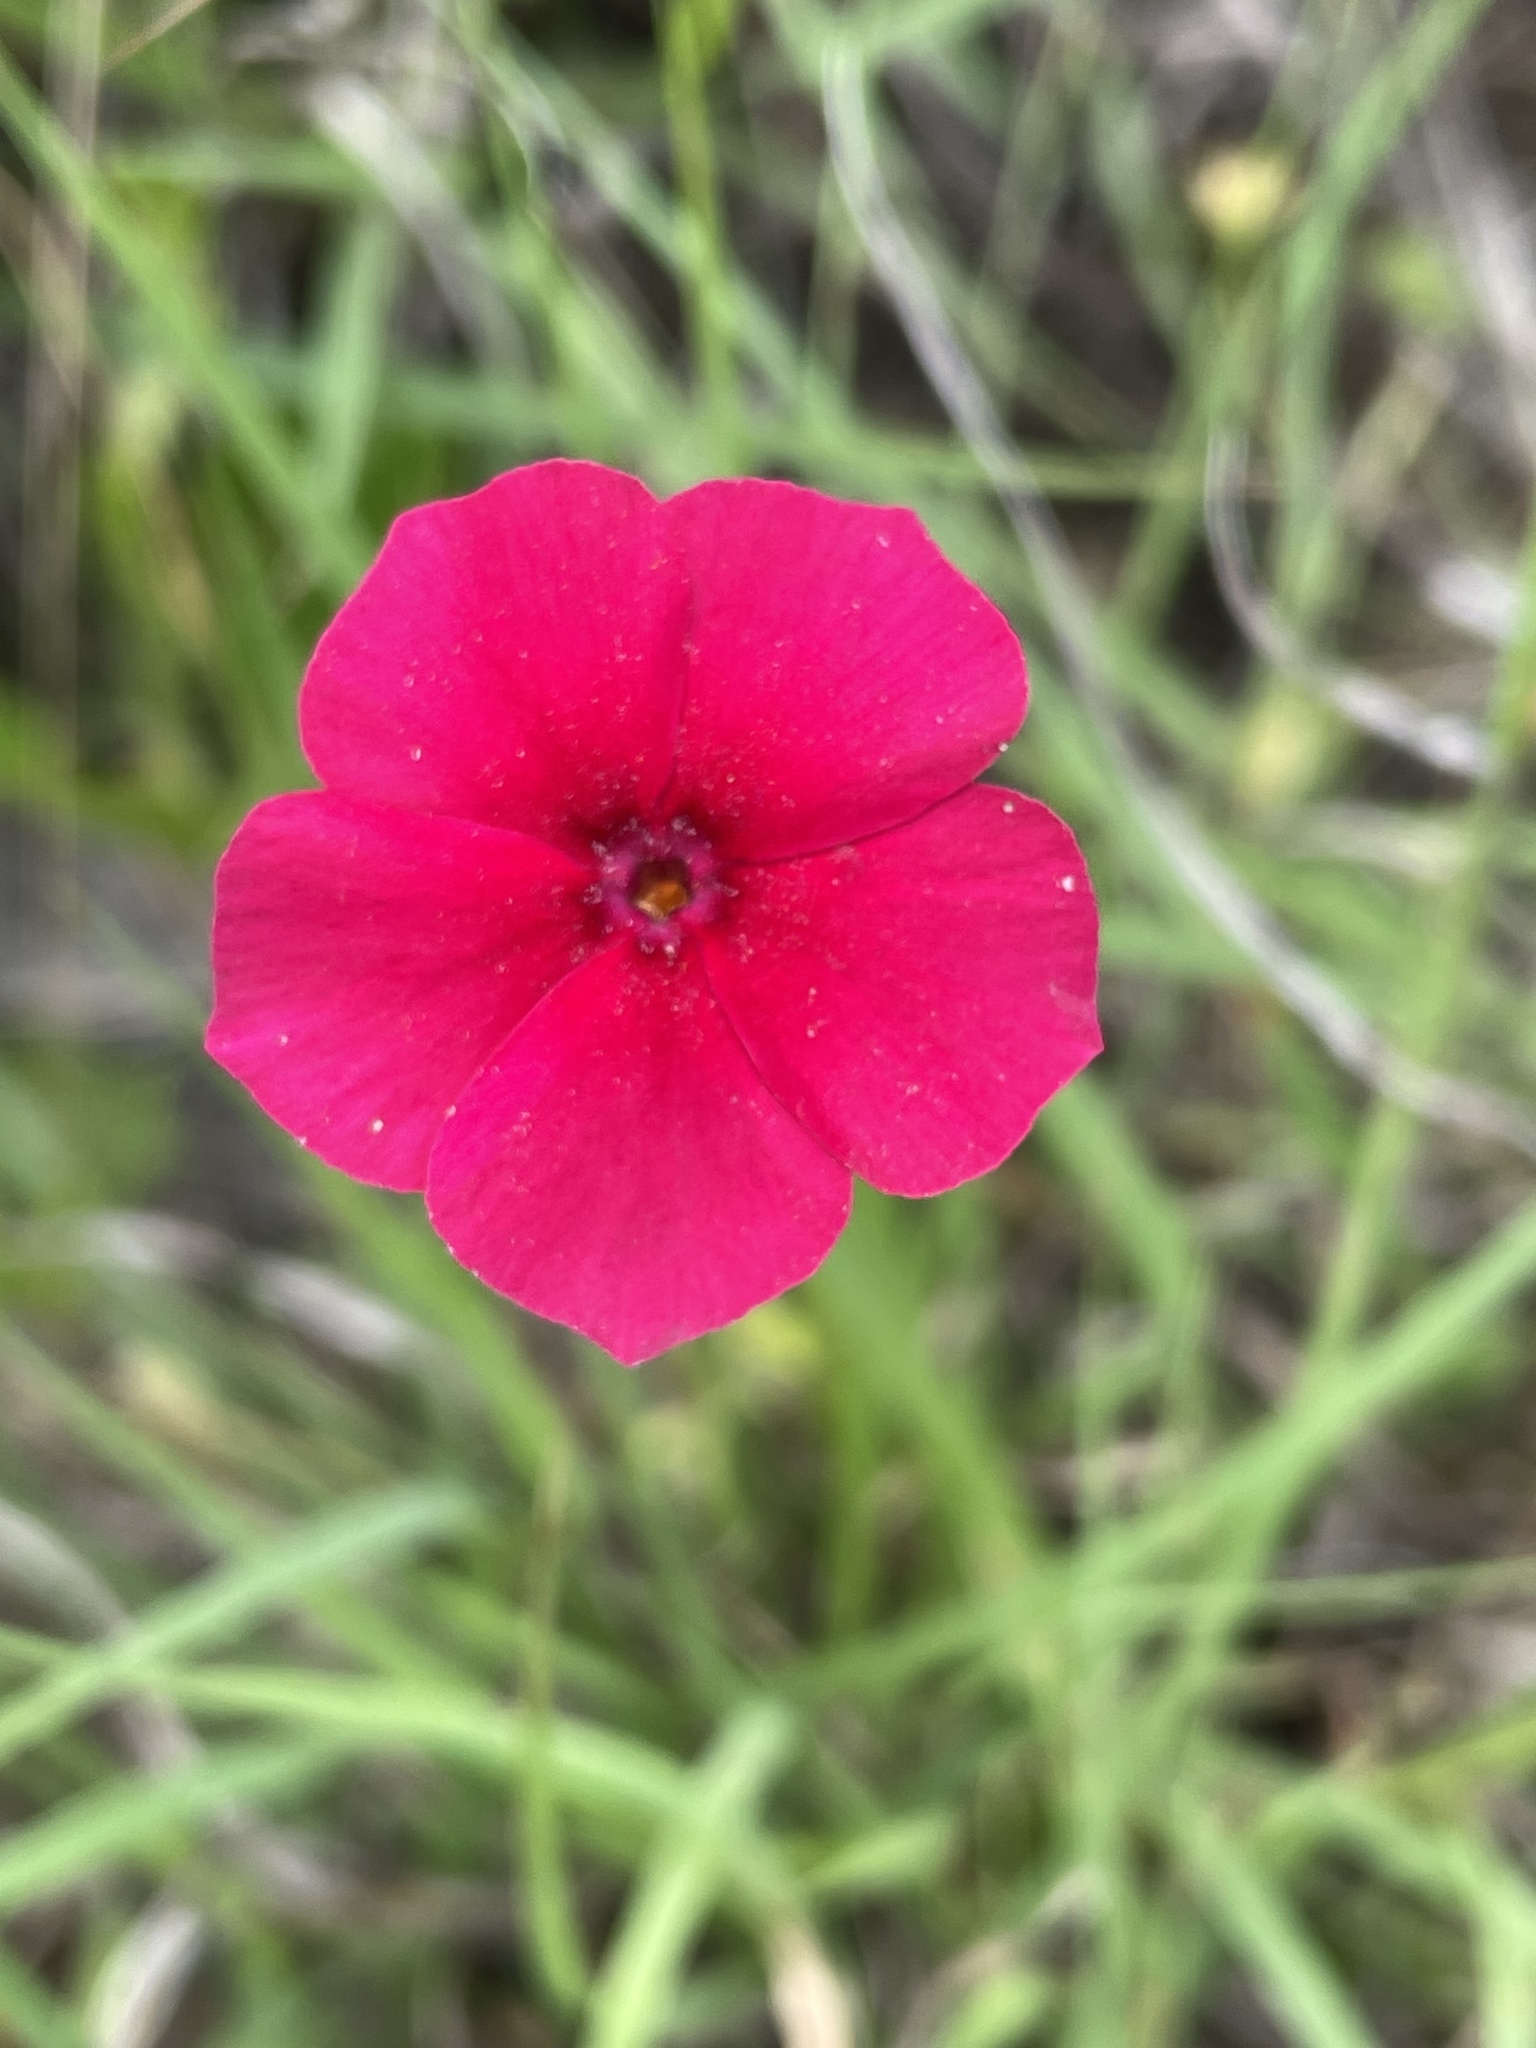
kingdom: Plantae
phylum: Tracheophyta
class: Magnoliopsida
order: Ericales
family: Polemoniaceae
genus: Phlox
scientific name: Phlox drummondii
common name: Drummond's phlox
